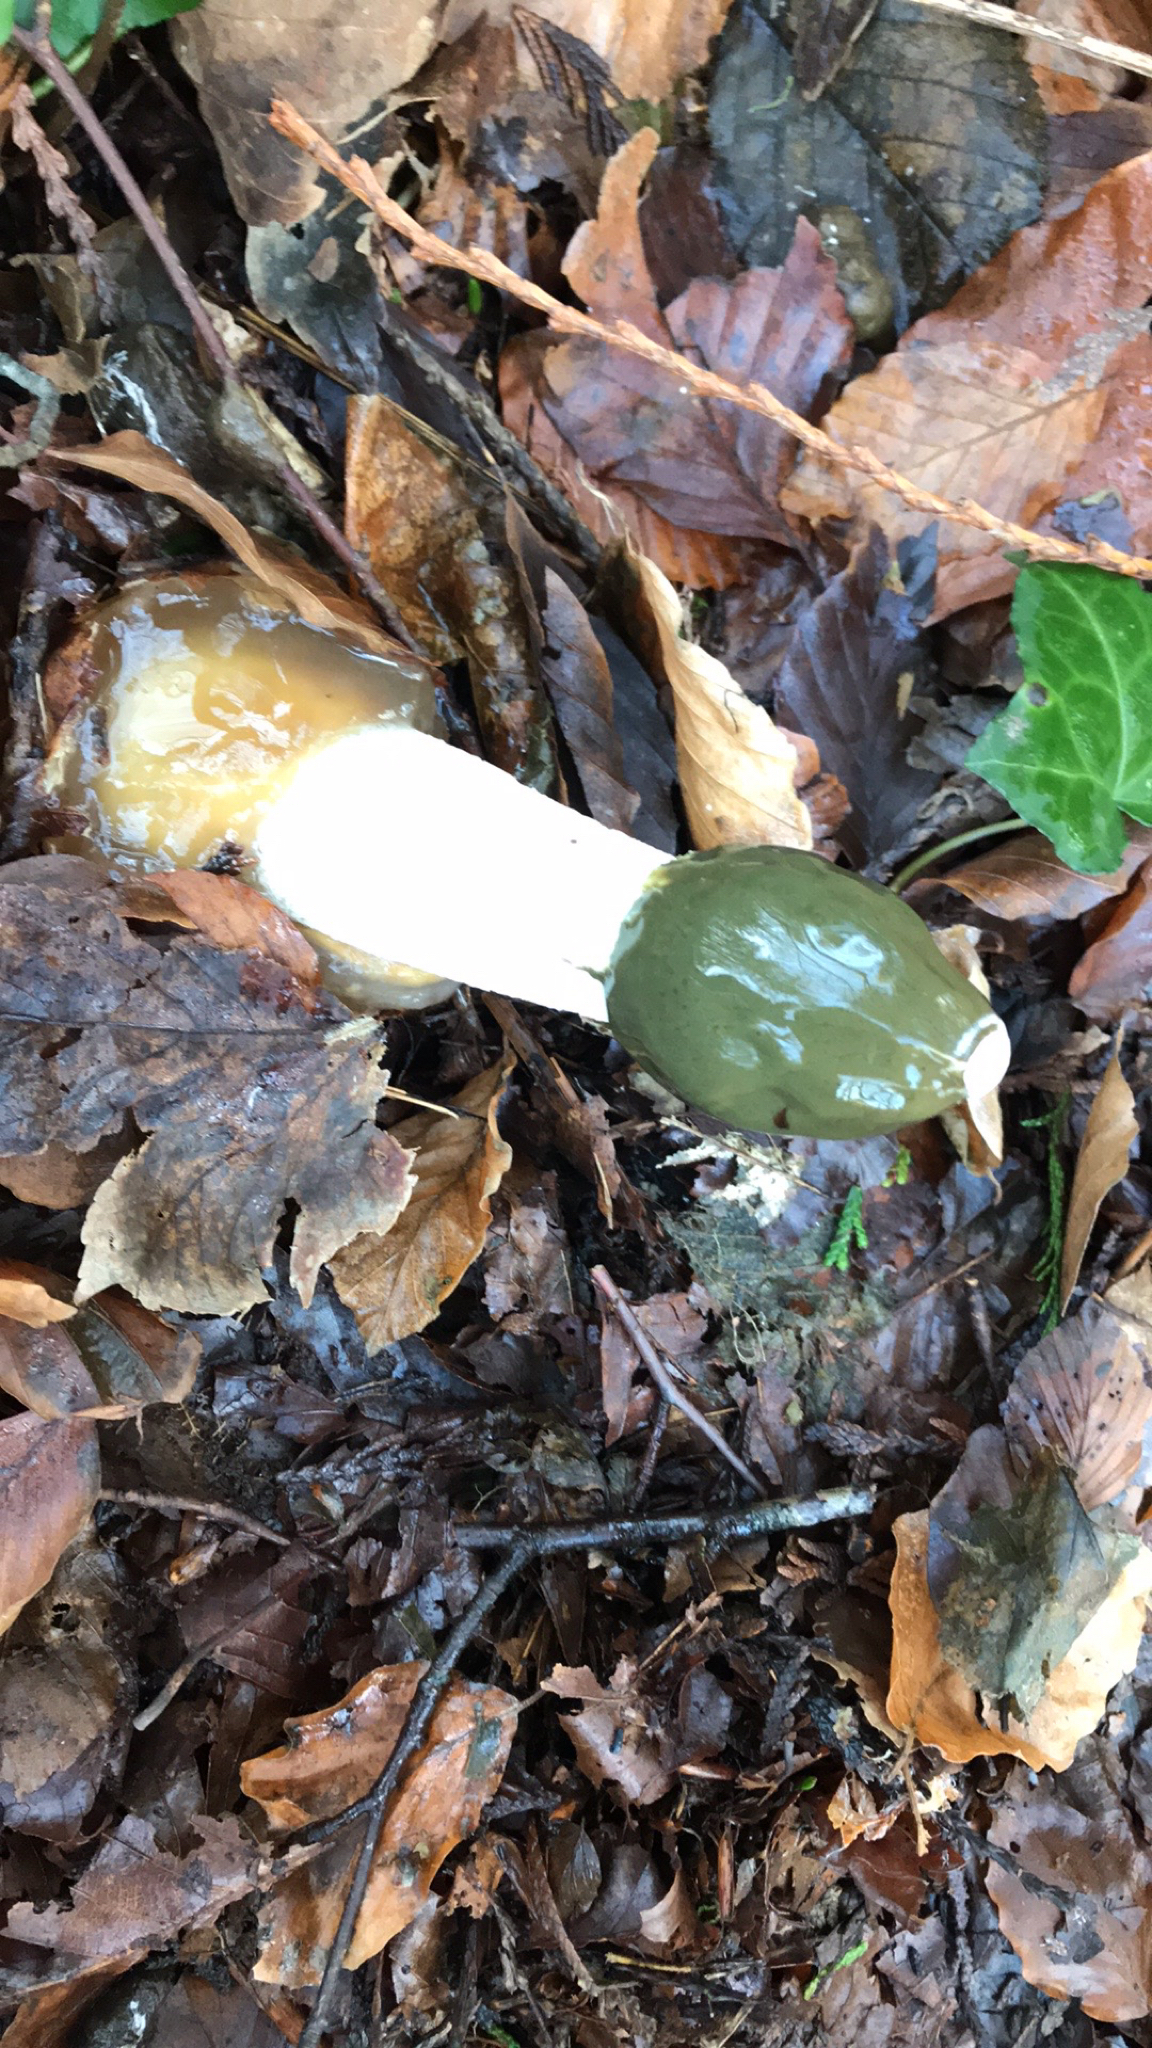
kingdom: Fungi
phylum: Basidiomycota
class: Agaricomycetes
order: Phallales
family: Phallaceae
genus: Phallus
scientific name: Phallus impudicus
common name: Common stinkhorn
